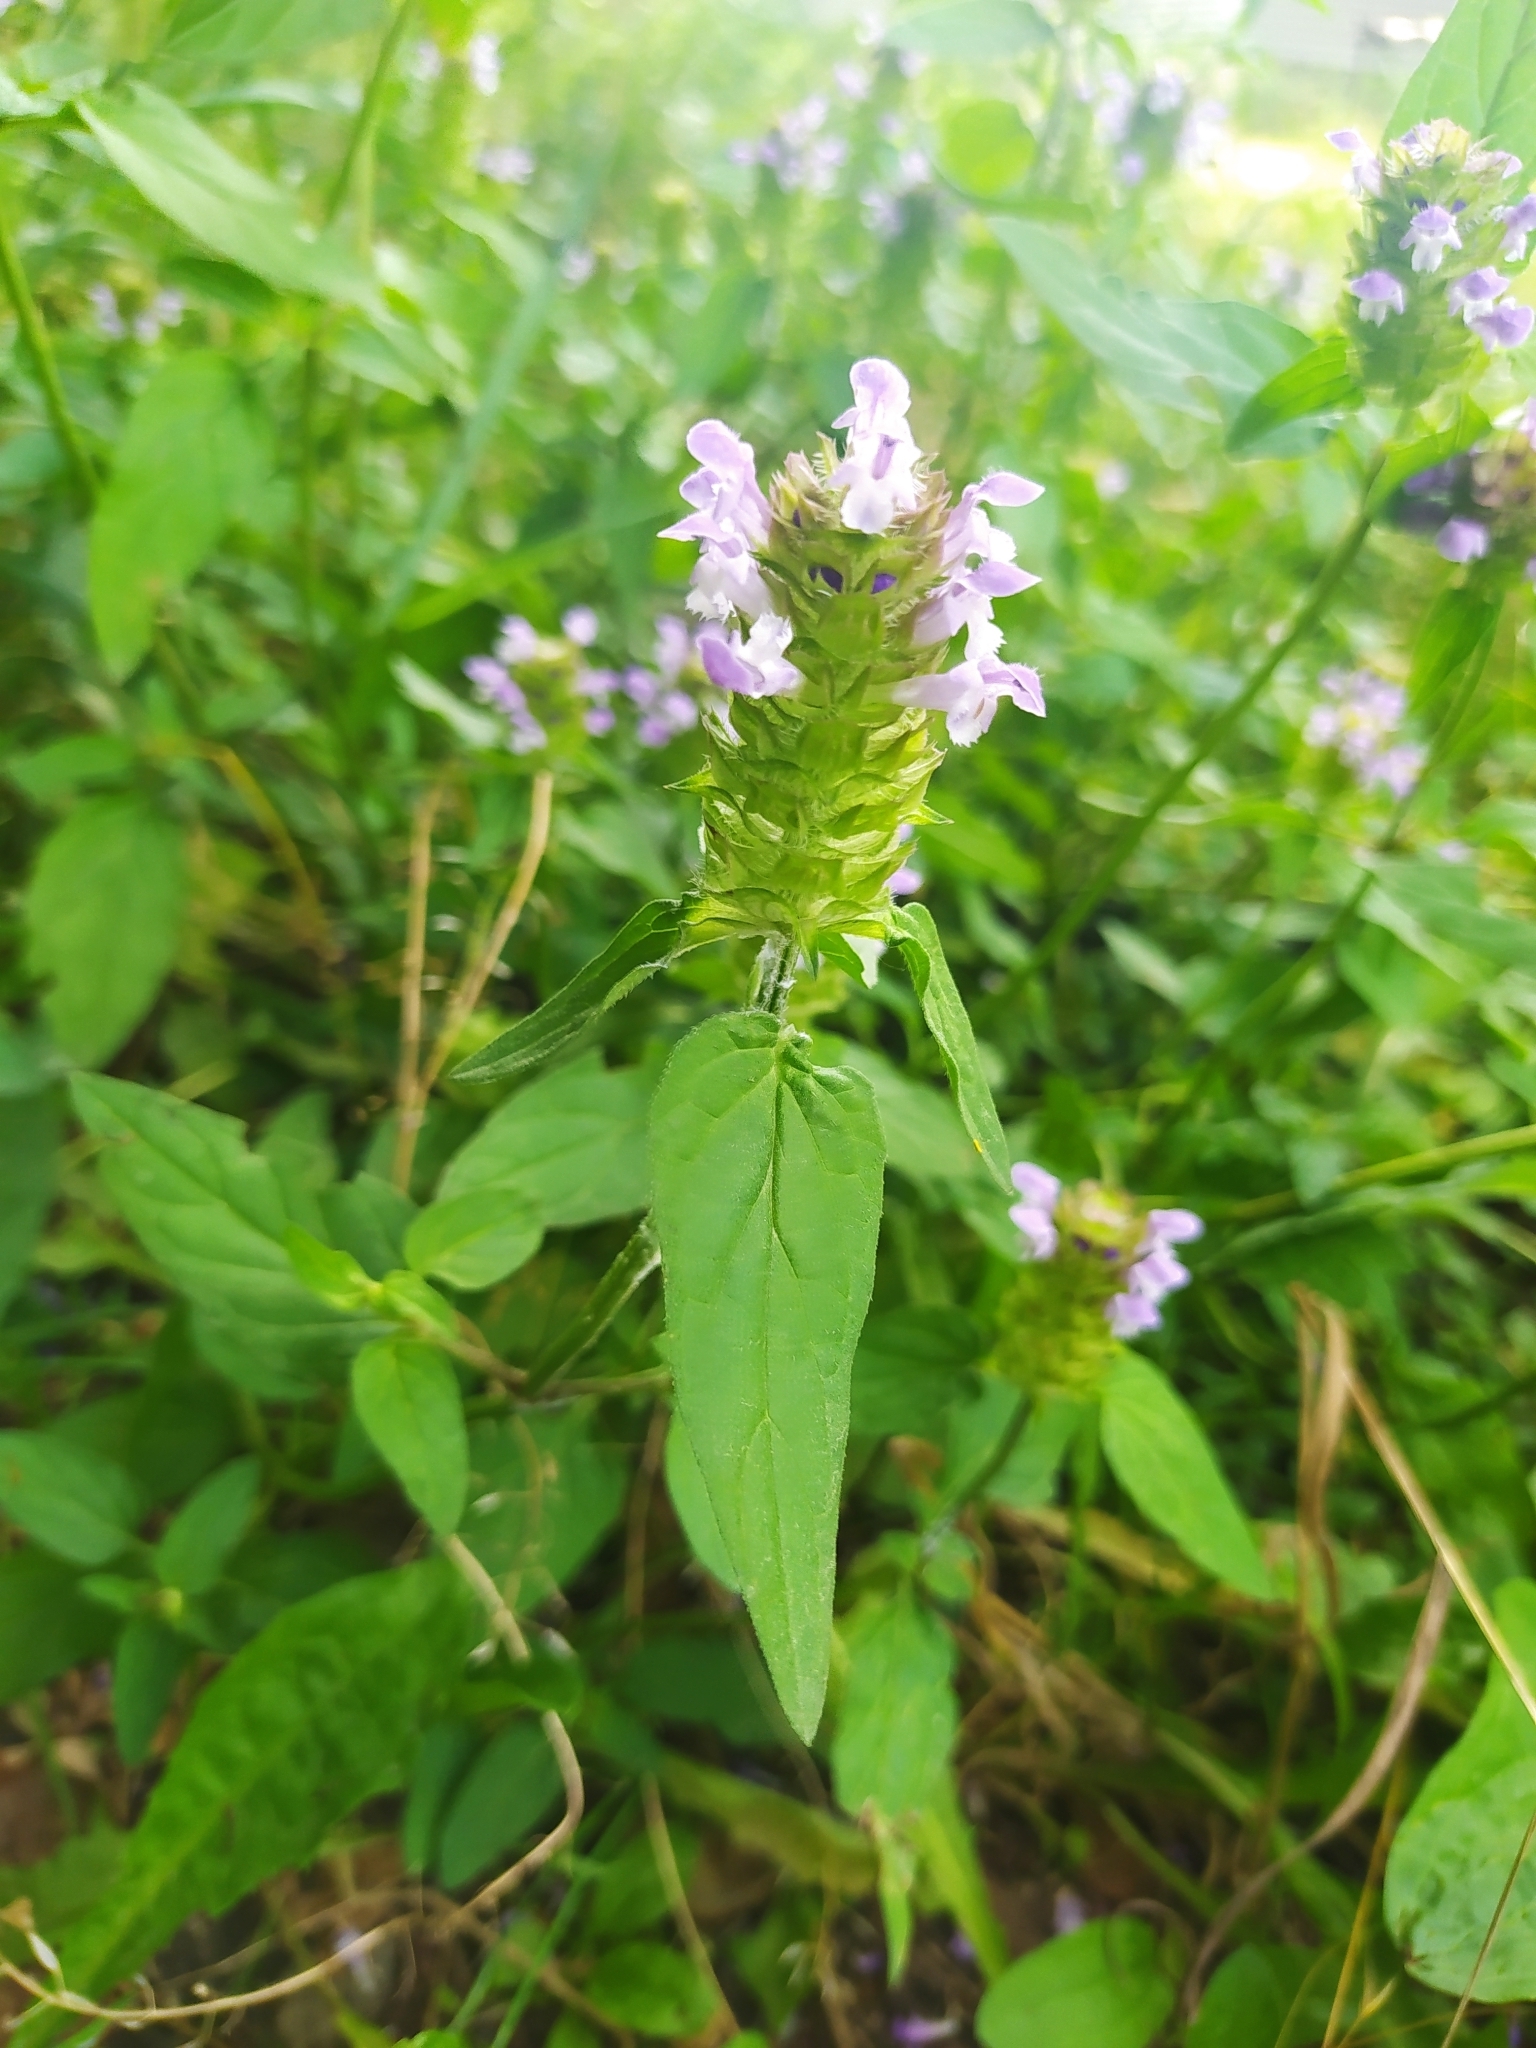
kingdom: Plantae
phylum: Tracheophyta
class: Magnoliopsida
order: Lamiales
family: Lamiaceae
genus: Prunella
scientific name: Prunella vulgaris
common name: Heal-all
